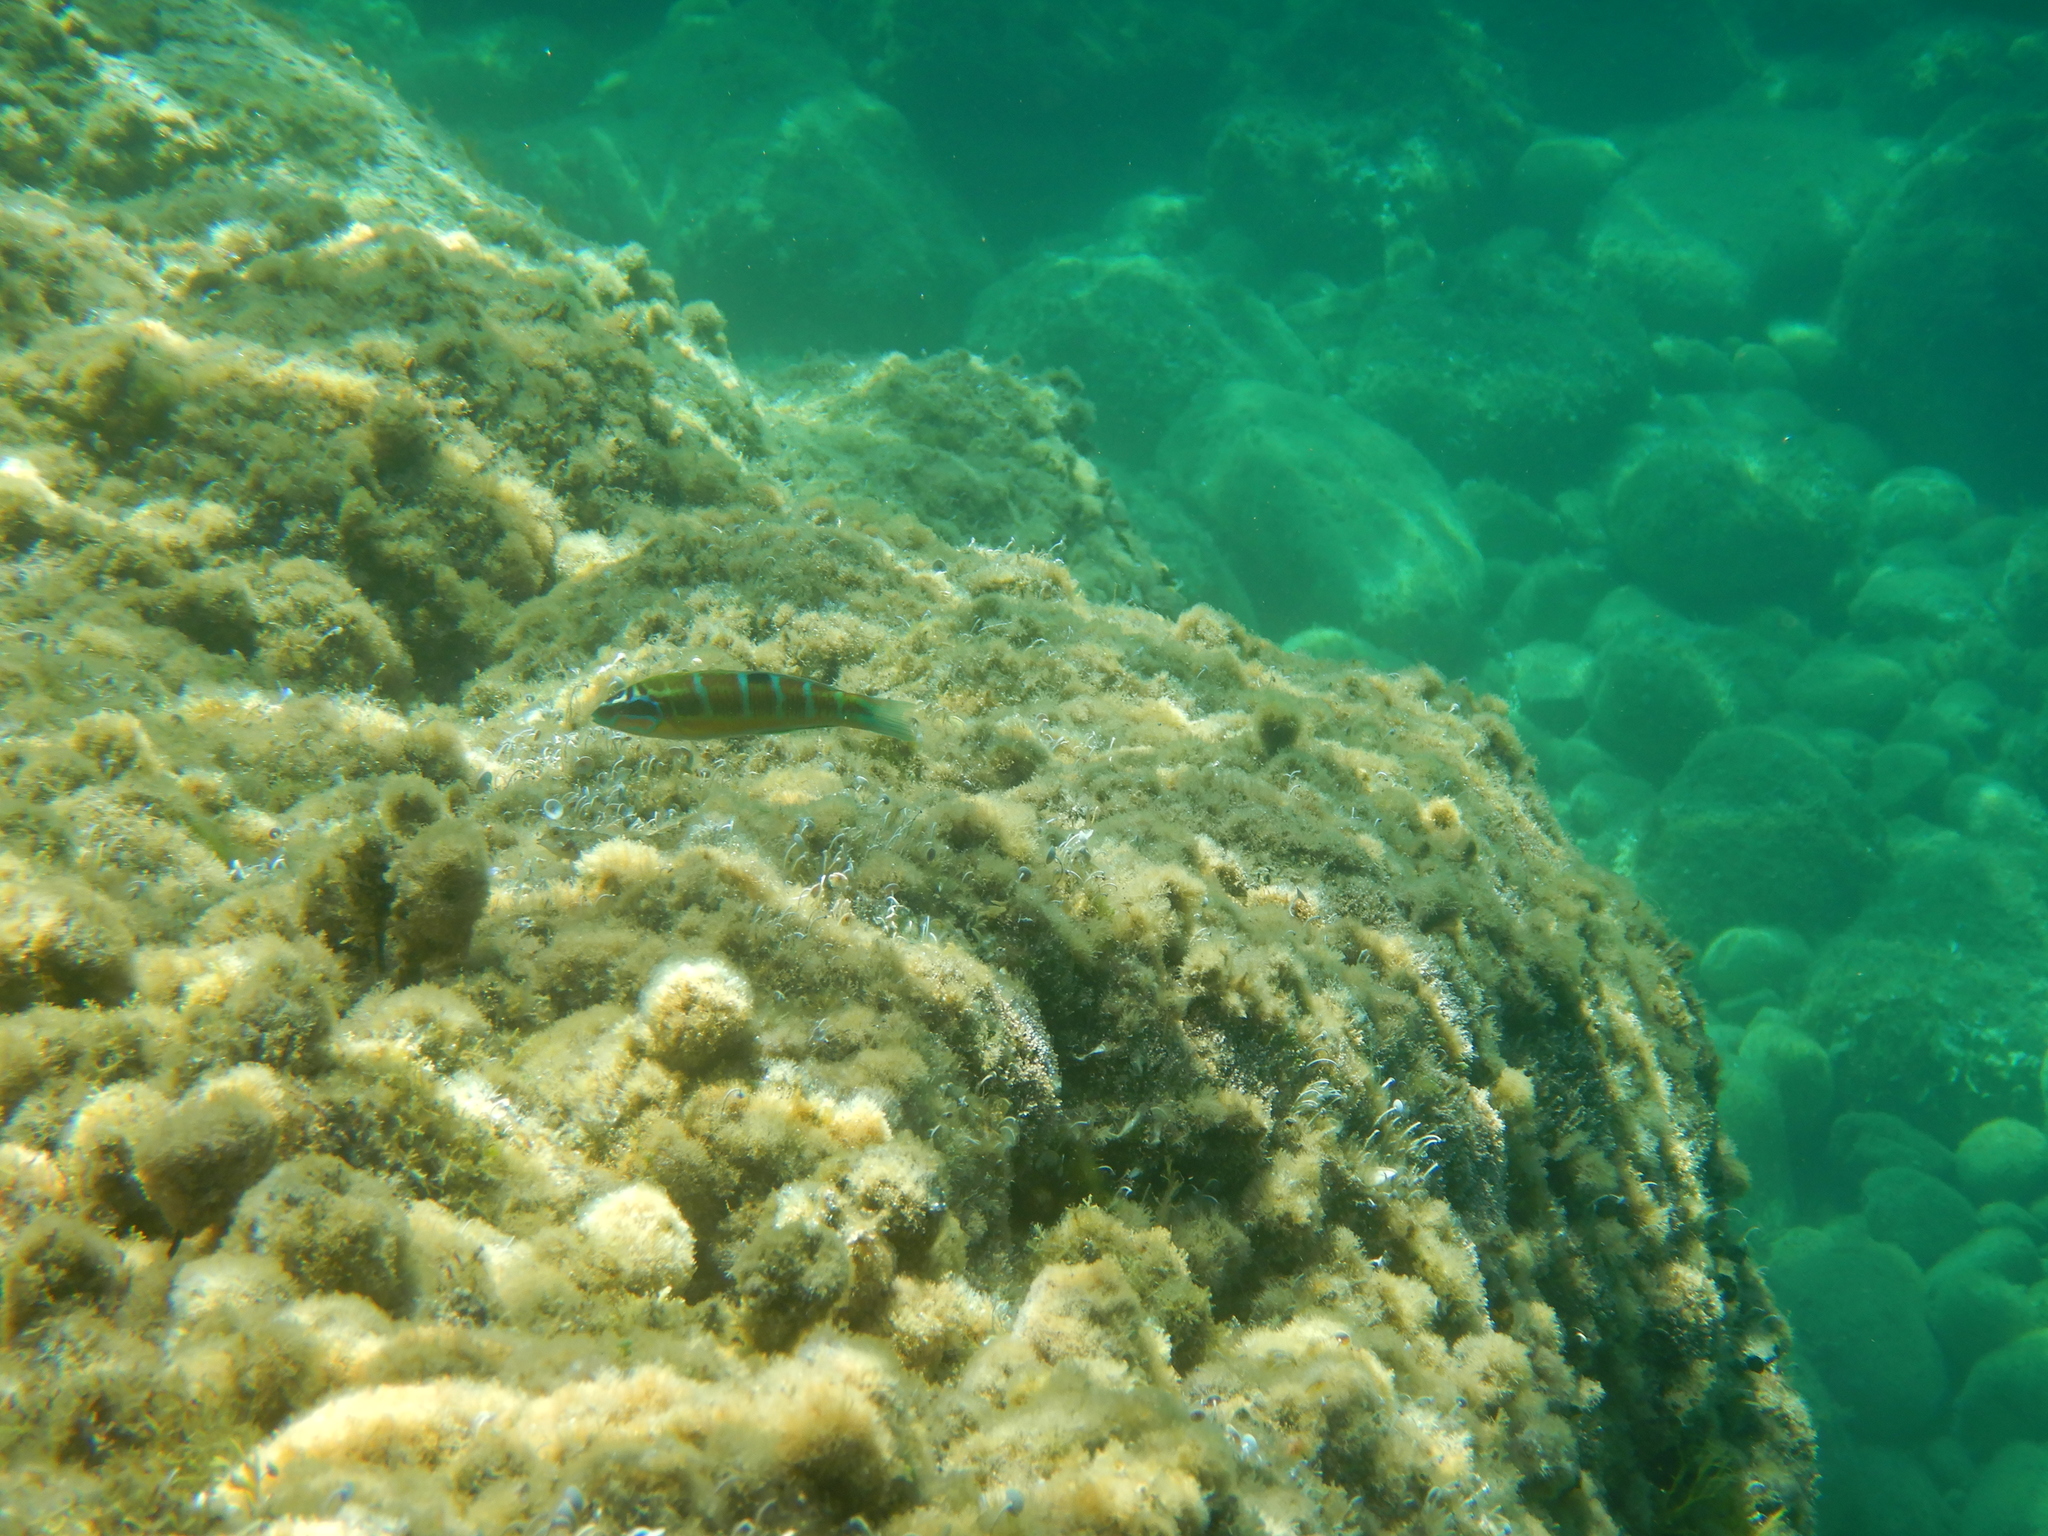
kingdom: Animalia
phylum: Chordata
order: Perciformes
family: Labridae
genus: Thalassoma
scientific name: Thalassoma pavo
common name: Ornate wrasse
